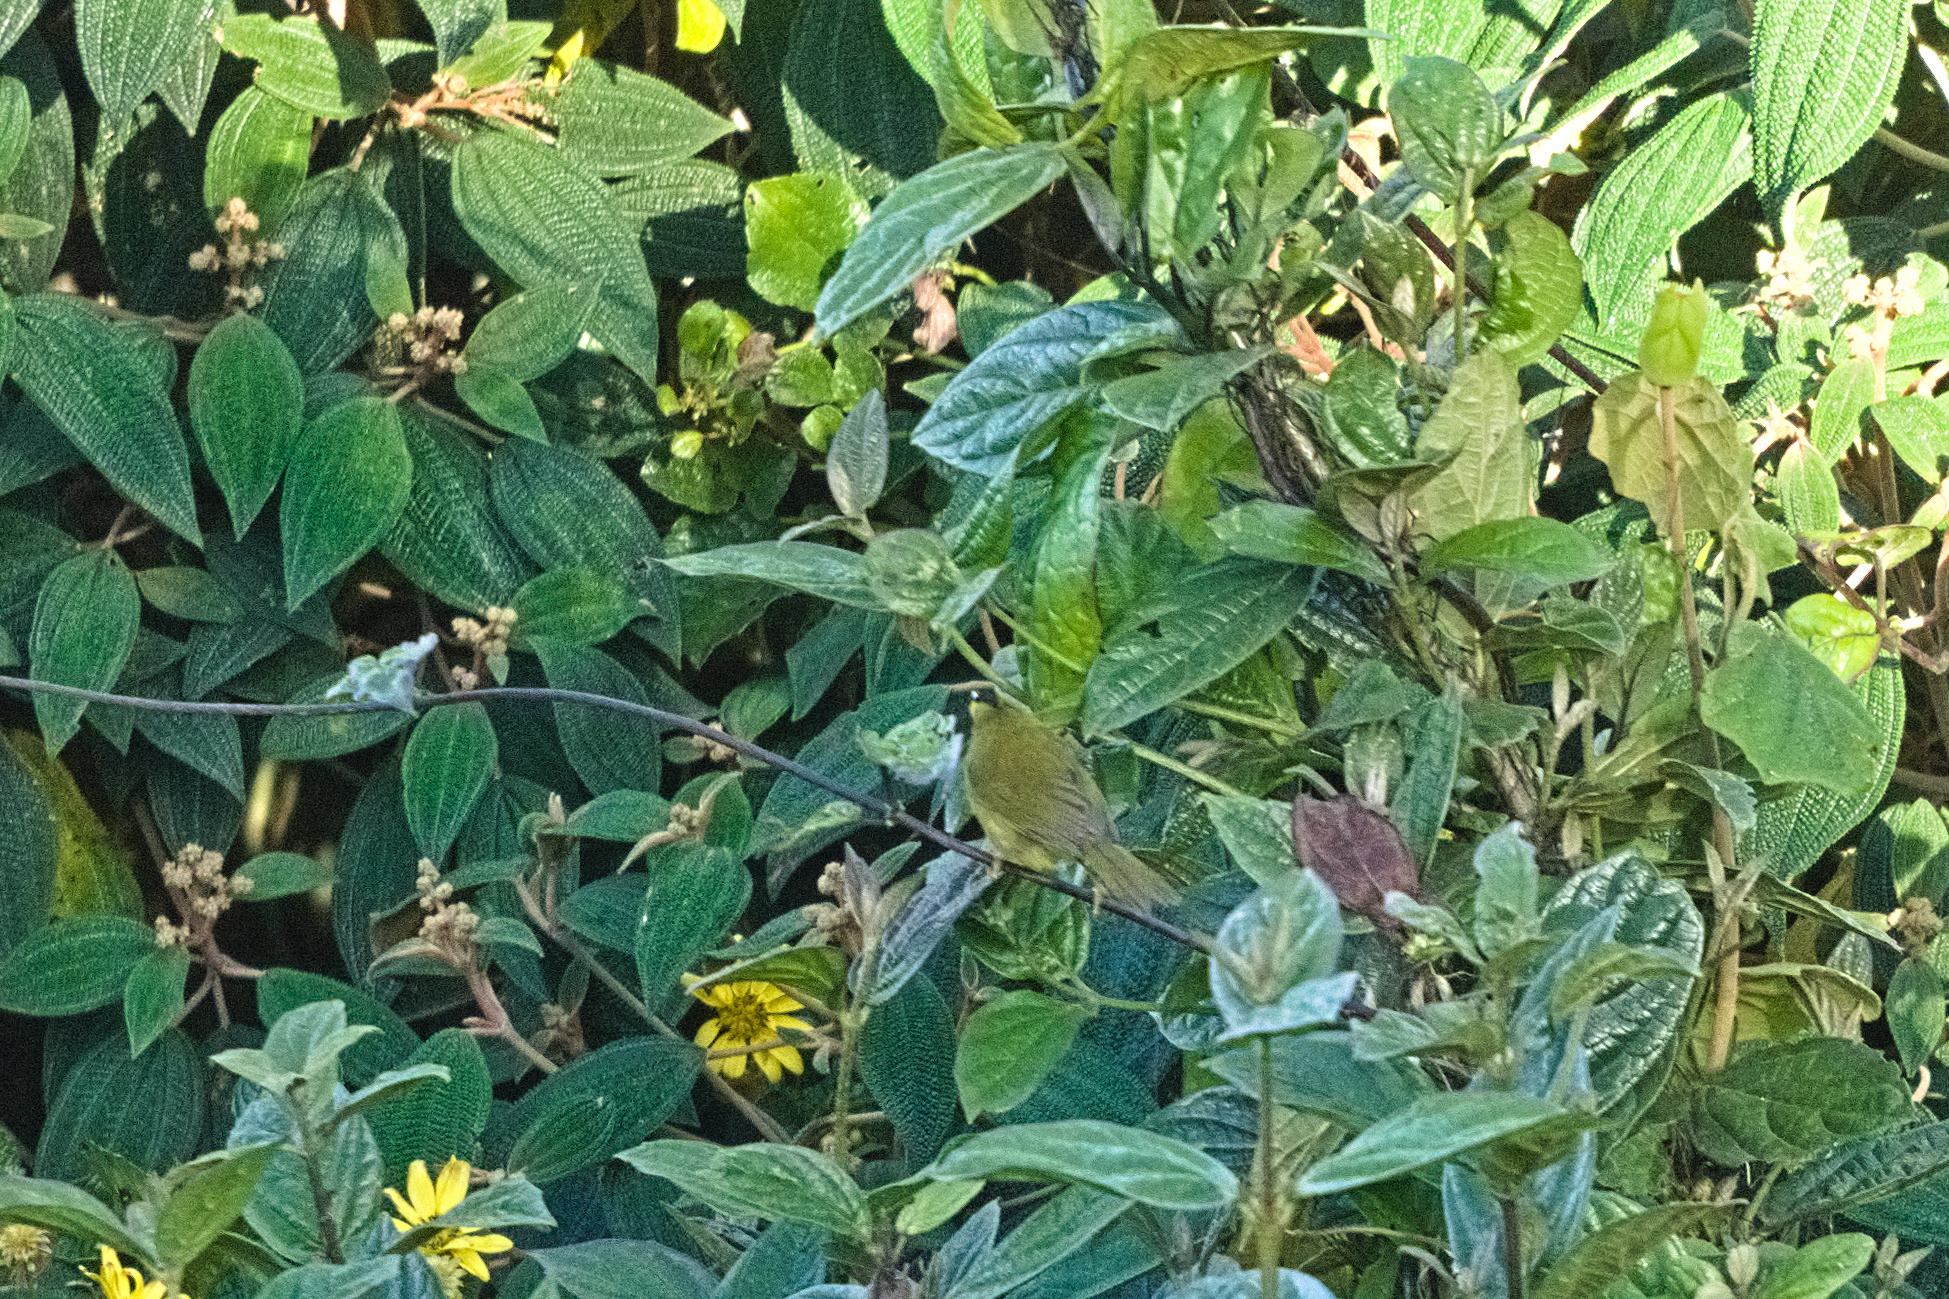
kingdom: Animalia
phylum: Chordata
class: Aves
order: Passeriformes
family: Parulidae
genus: Myiothlypis
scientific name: Myiothlypis nigrocristata
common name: Black-crested warbler
